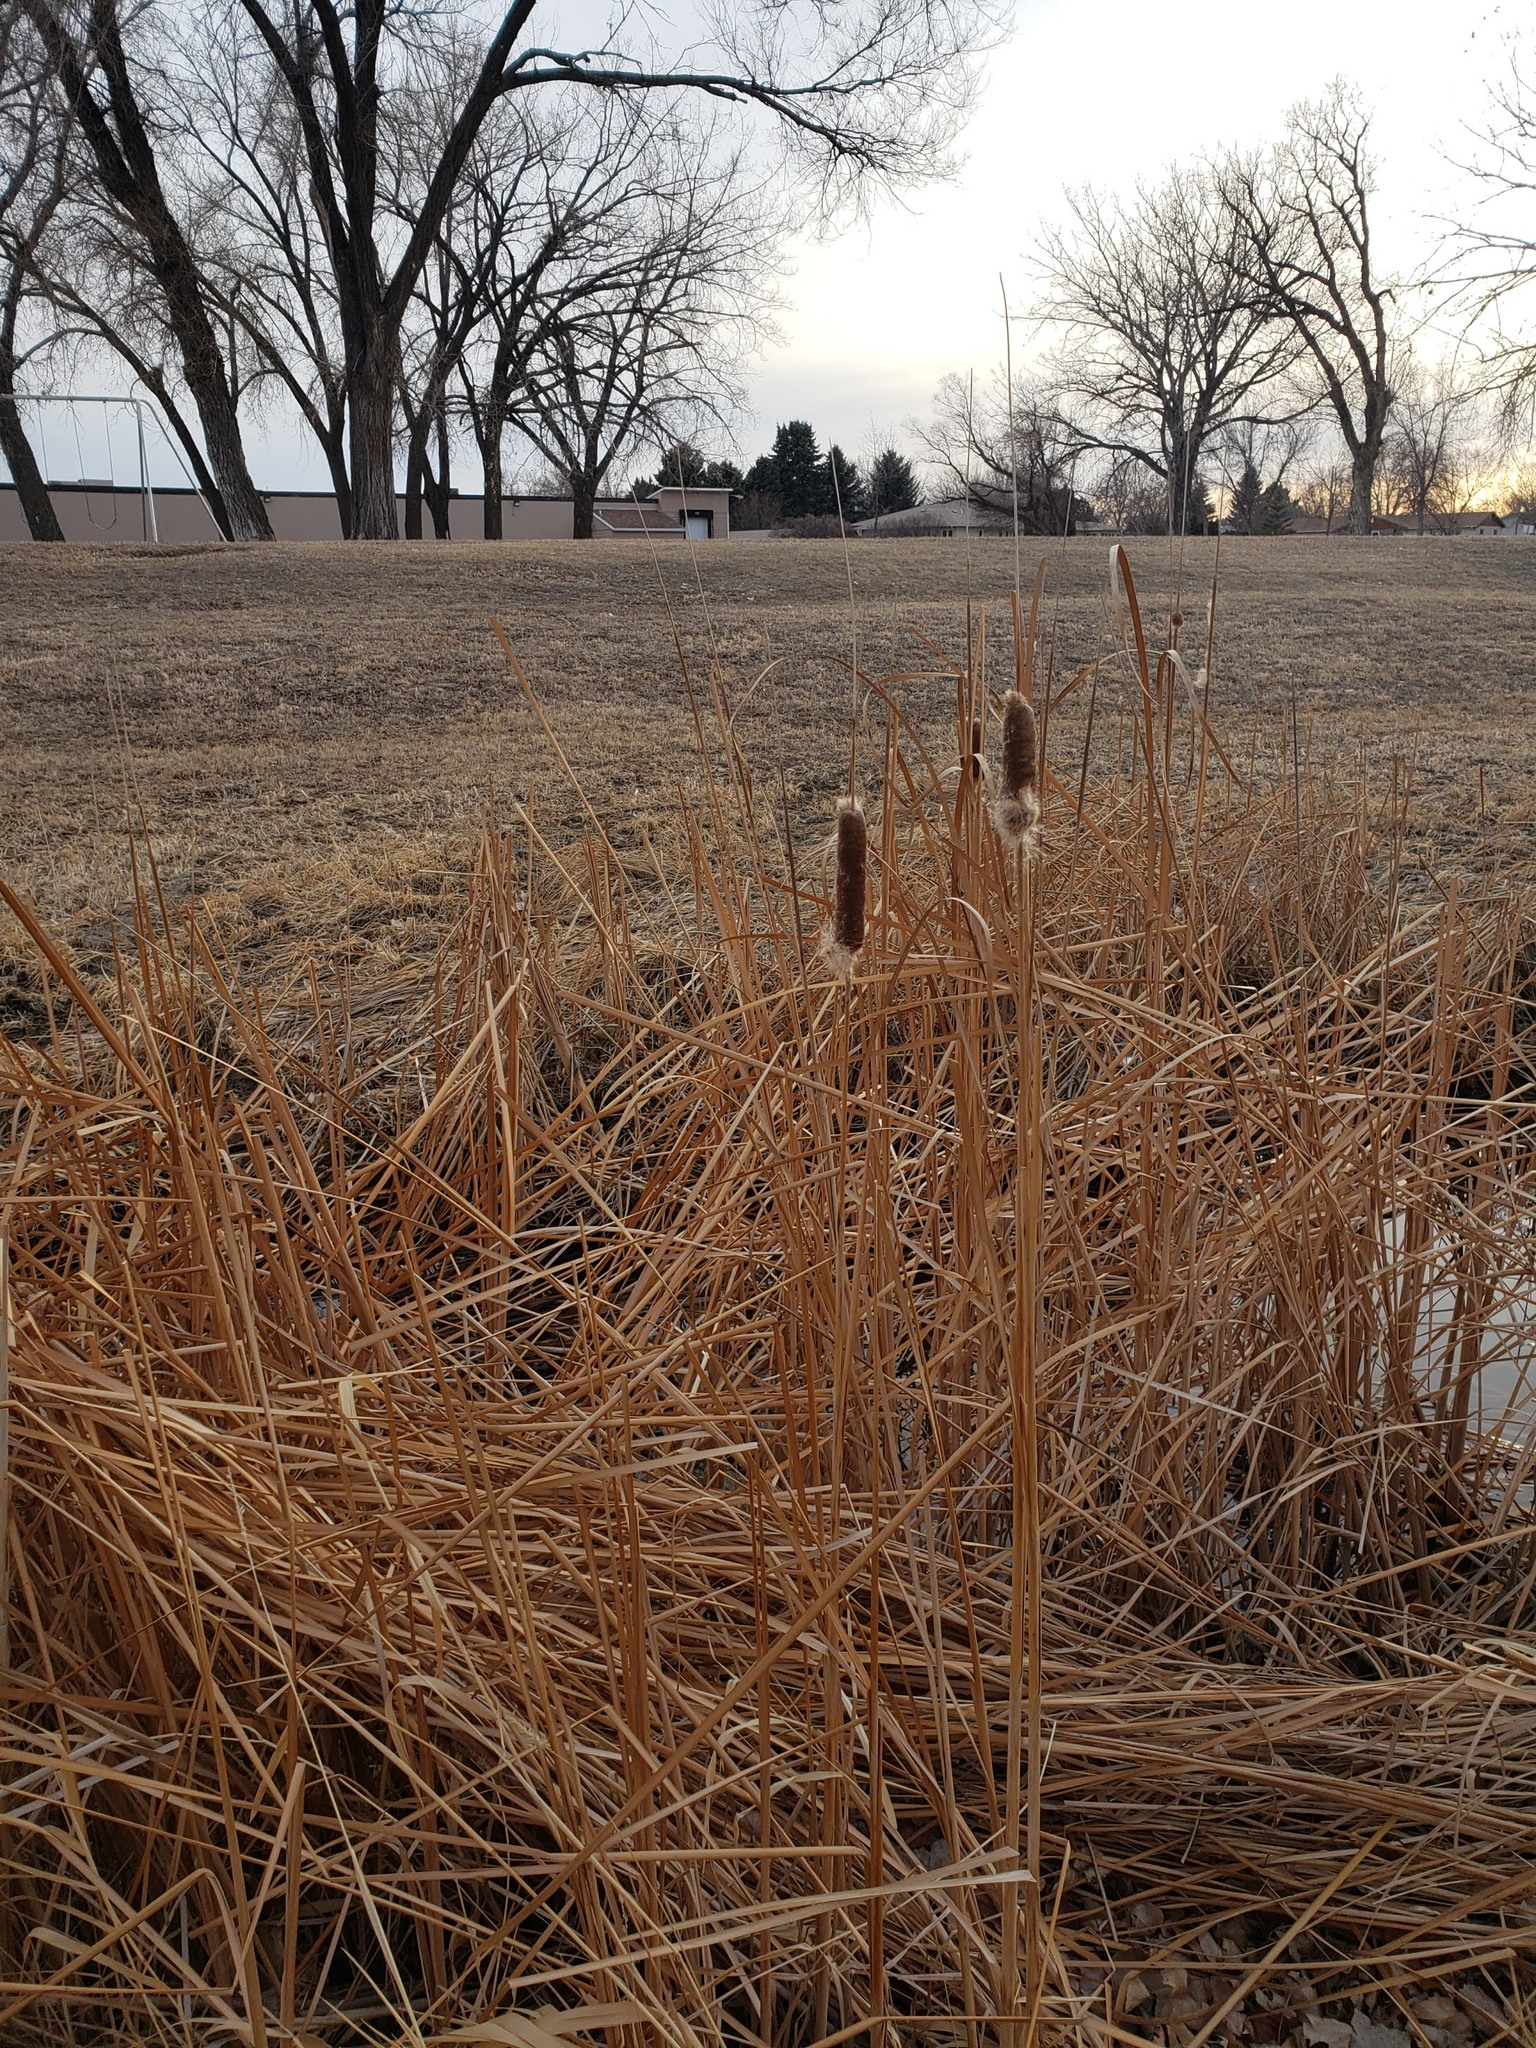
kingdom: Plantae
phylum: Tracheophyta
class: Liliopsida
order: Poales
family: Typhaceae
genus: Typha
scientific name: Typha angustifolia
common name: Lesser bulrush
